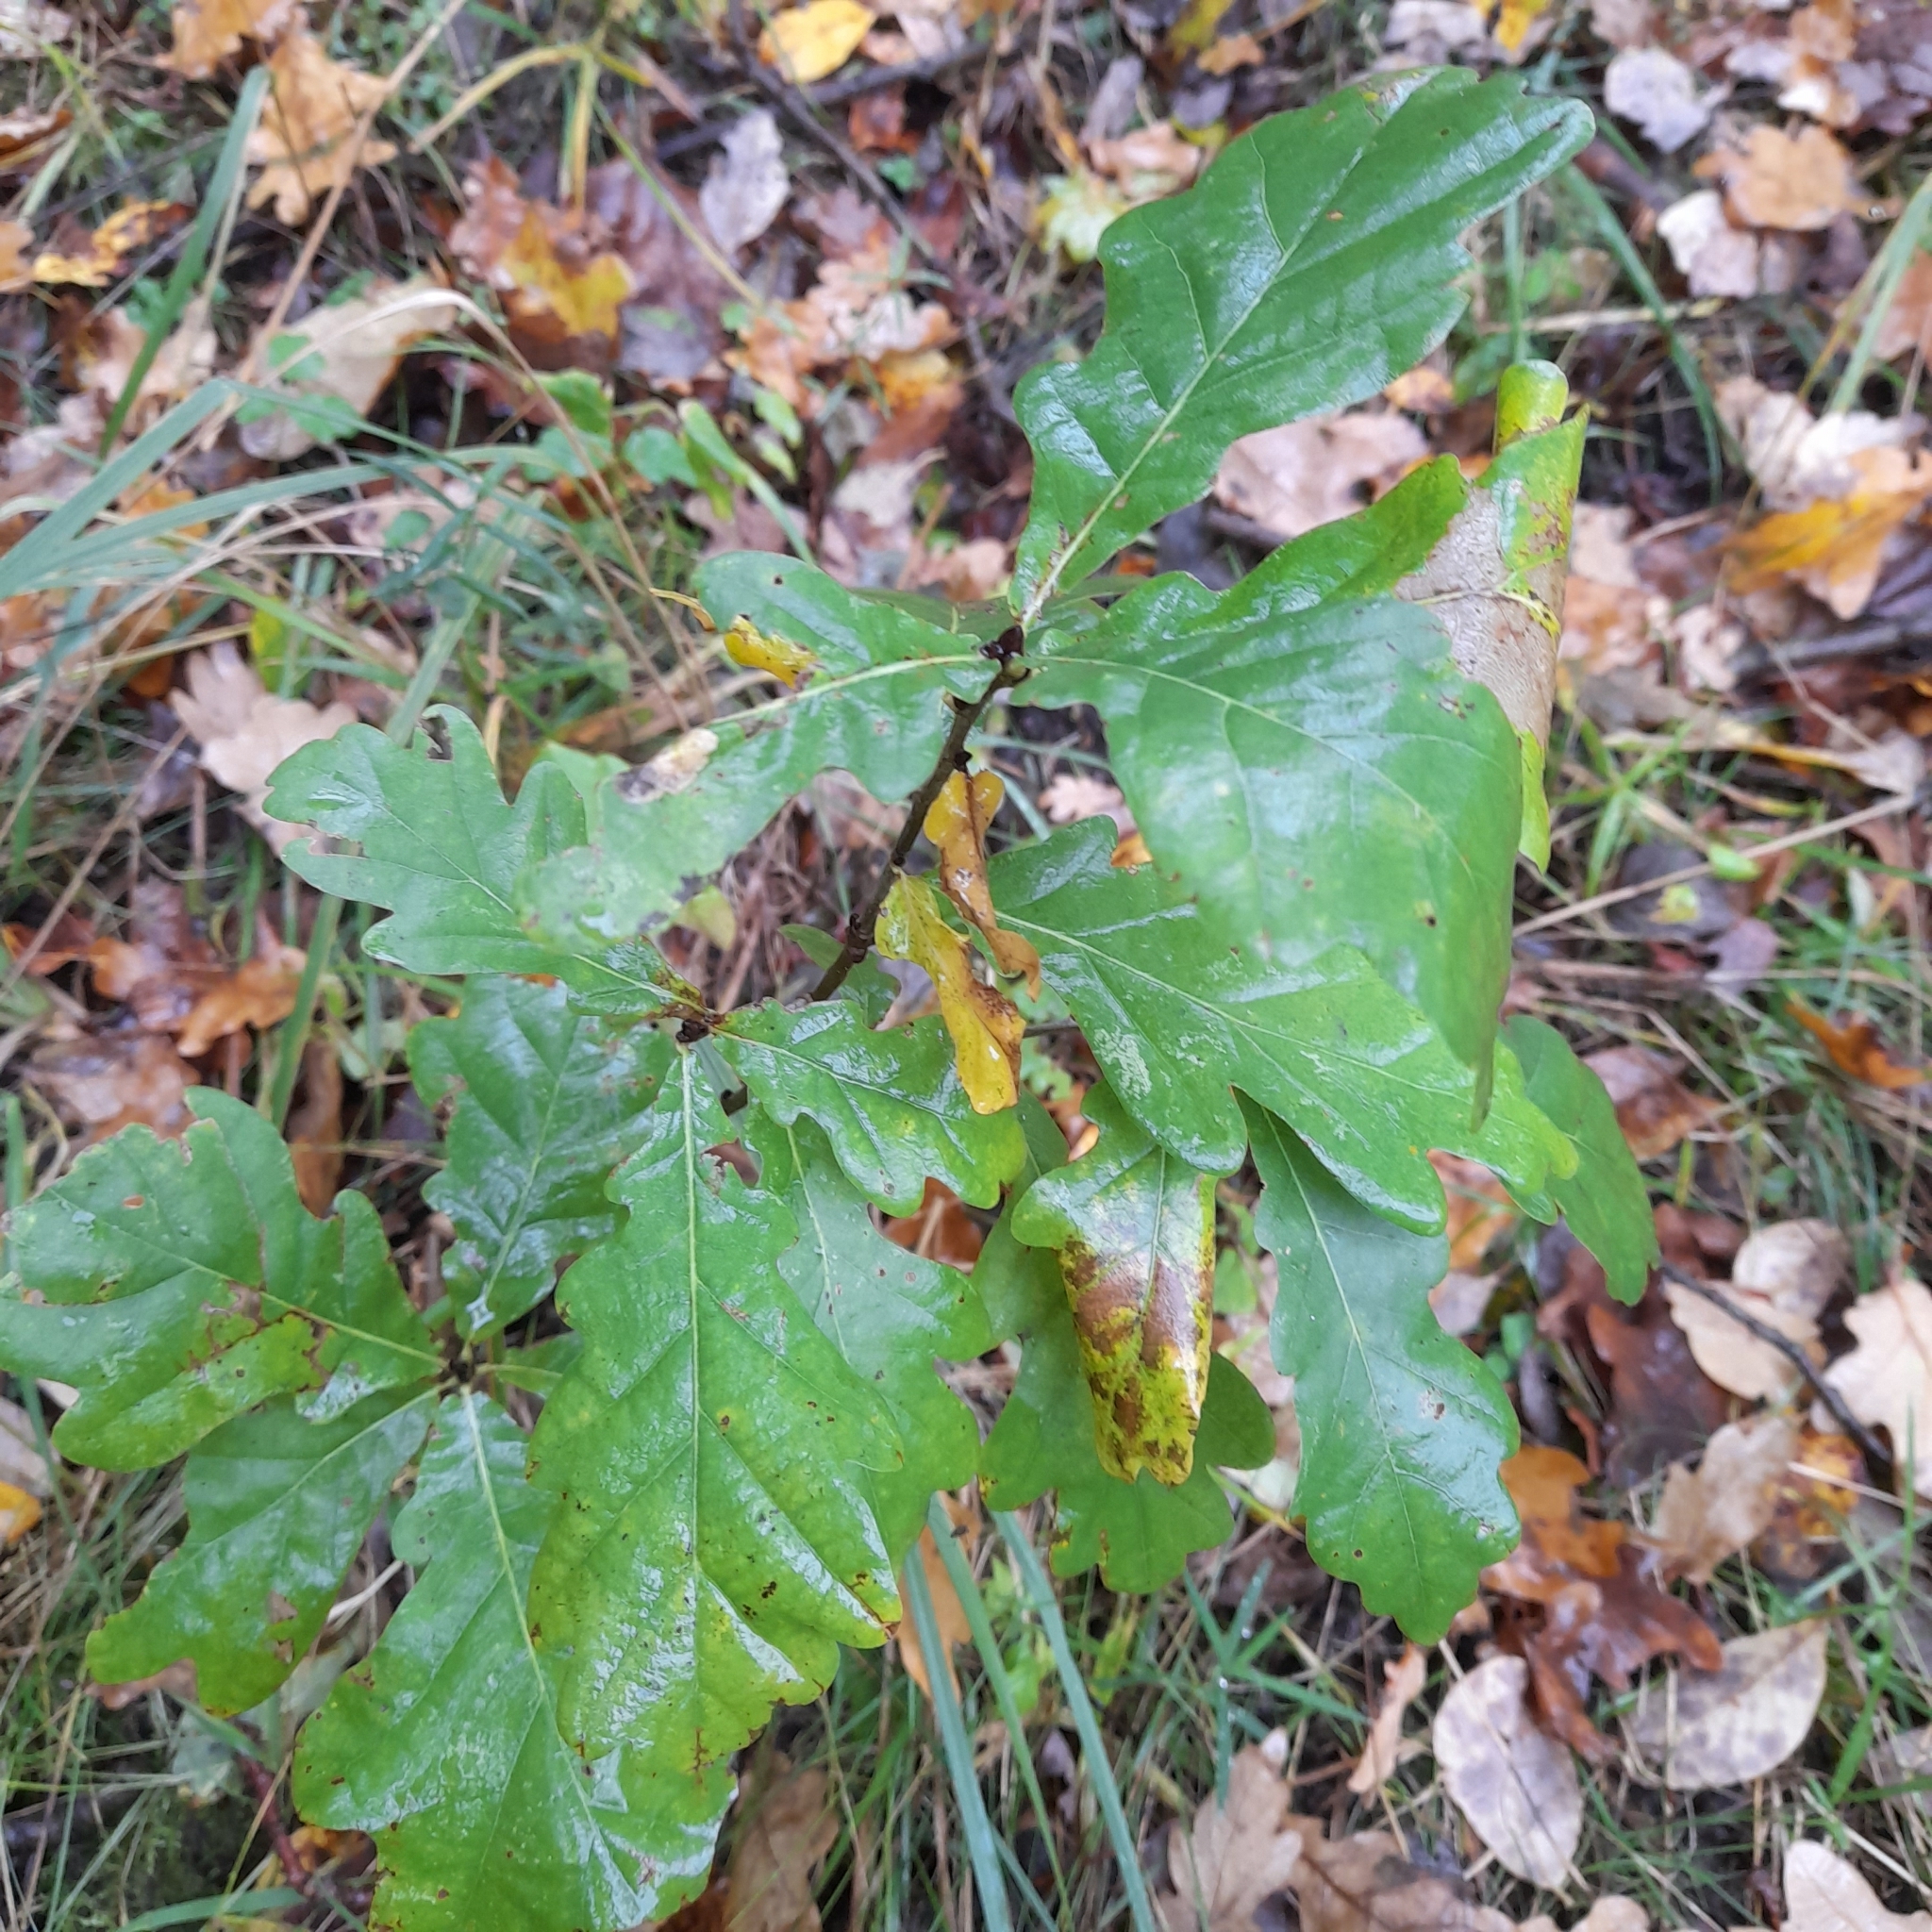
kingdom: Plantae
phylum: Tracheophyta
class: Magnoliopsida
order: Fagales
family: Fagaceae
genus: Quercus
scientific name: Quercus robur
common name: Pedunculate oak
